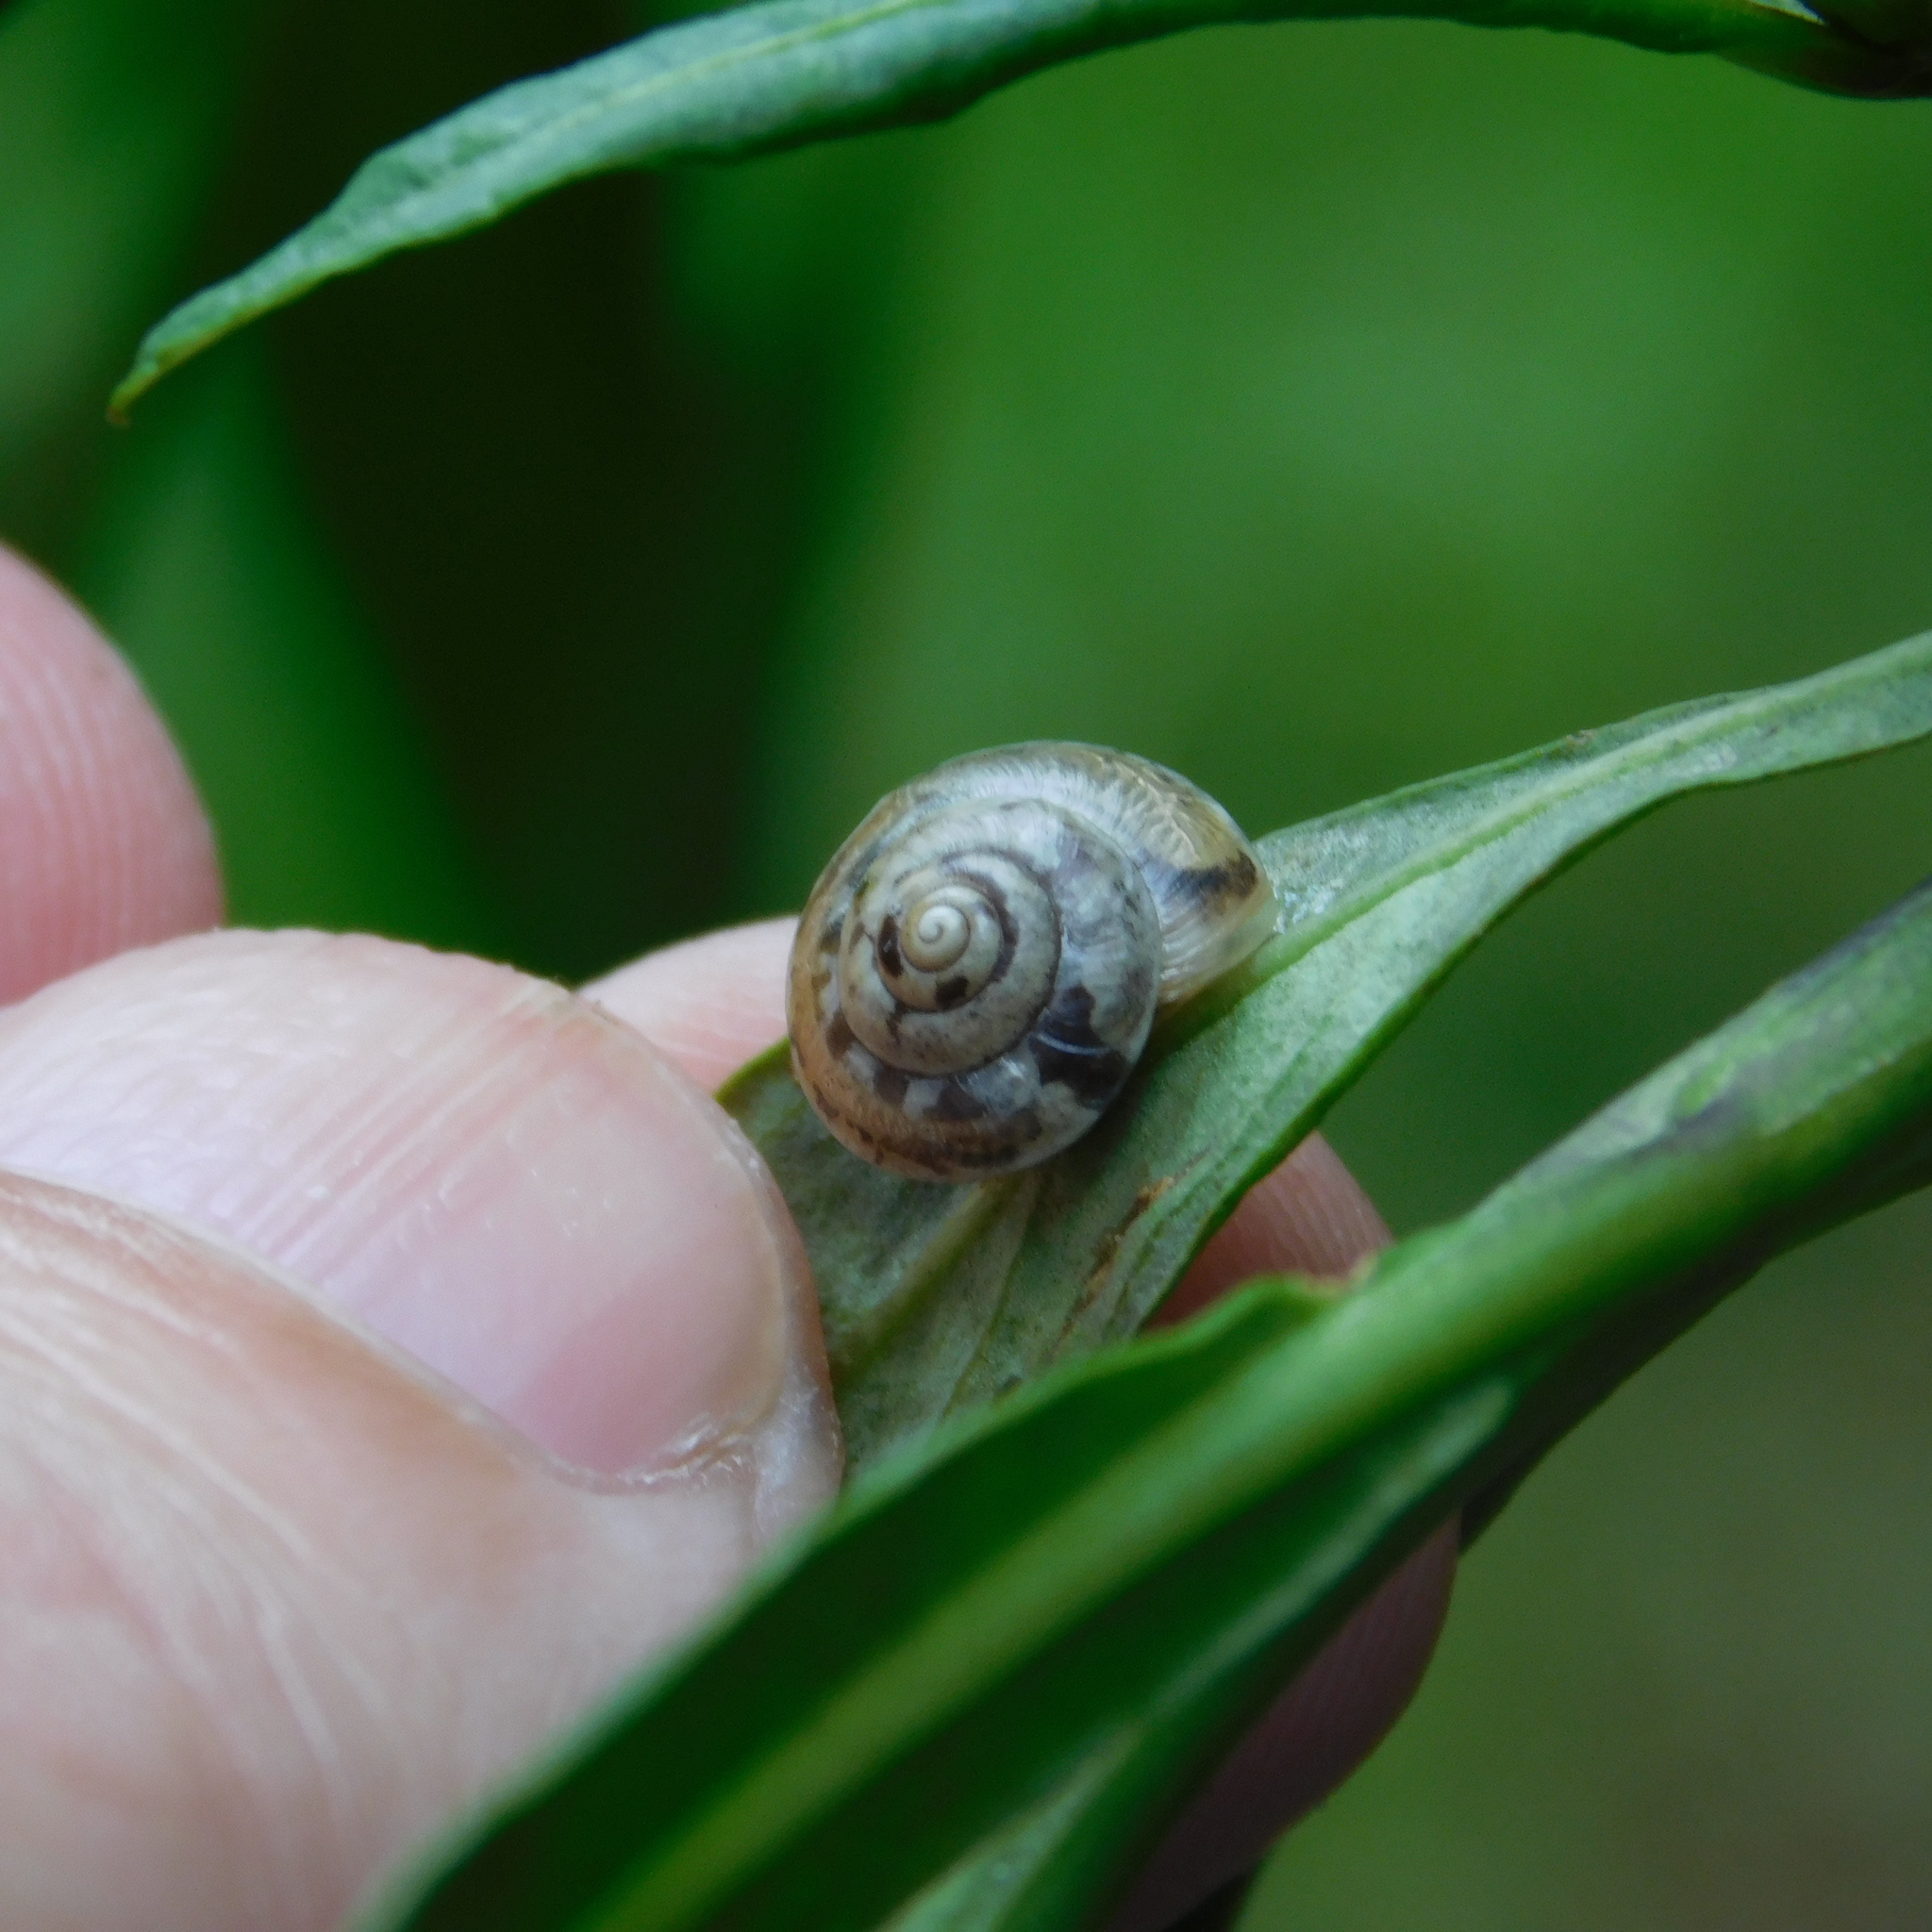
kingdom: Animalia
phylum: Mollusca
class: Gastropoda
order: Stylommatophora
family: Hygromiidae
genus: Hygromia
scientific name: Hygromia cinctella
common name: Girdled snail
